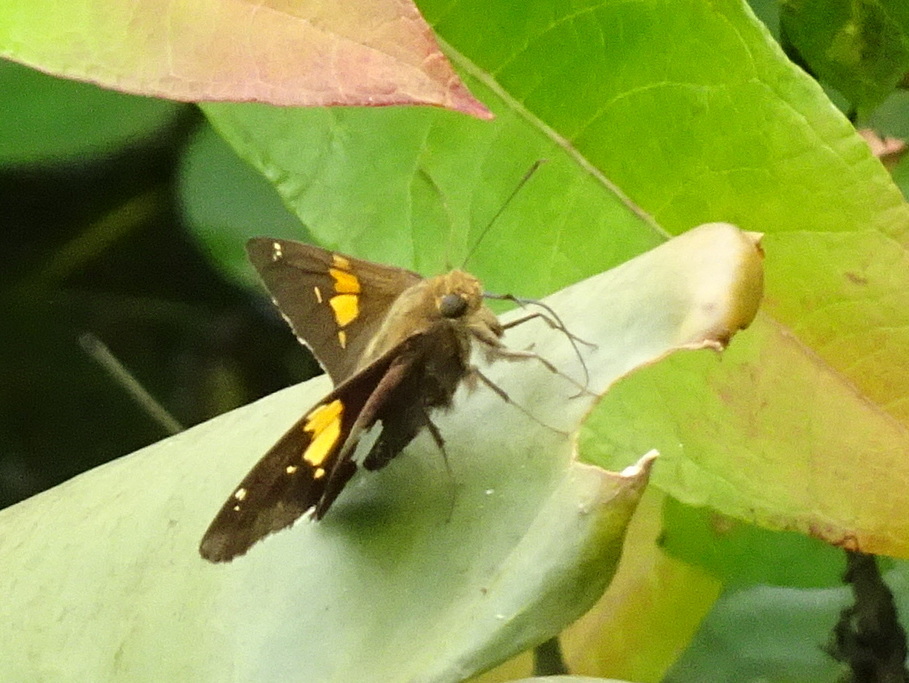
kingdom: Animalia
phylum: Arthropoda
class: Insecta
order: Lepidoptera
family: Hesperiidae
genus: Epargyreus
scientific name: Epargyreus clarus
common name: Silver-spotted skipper
